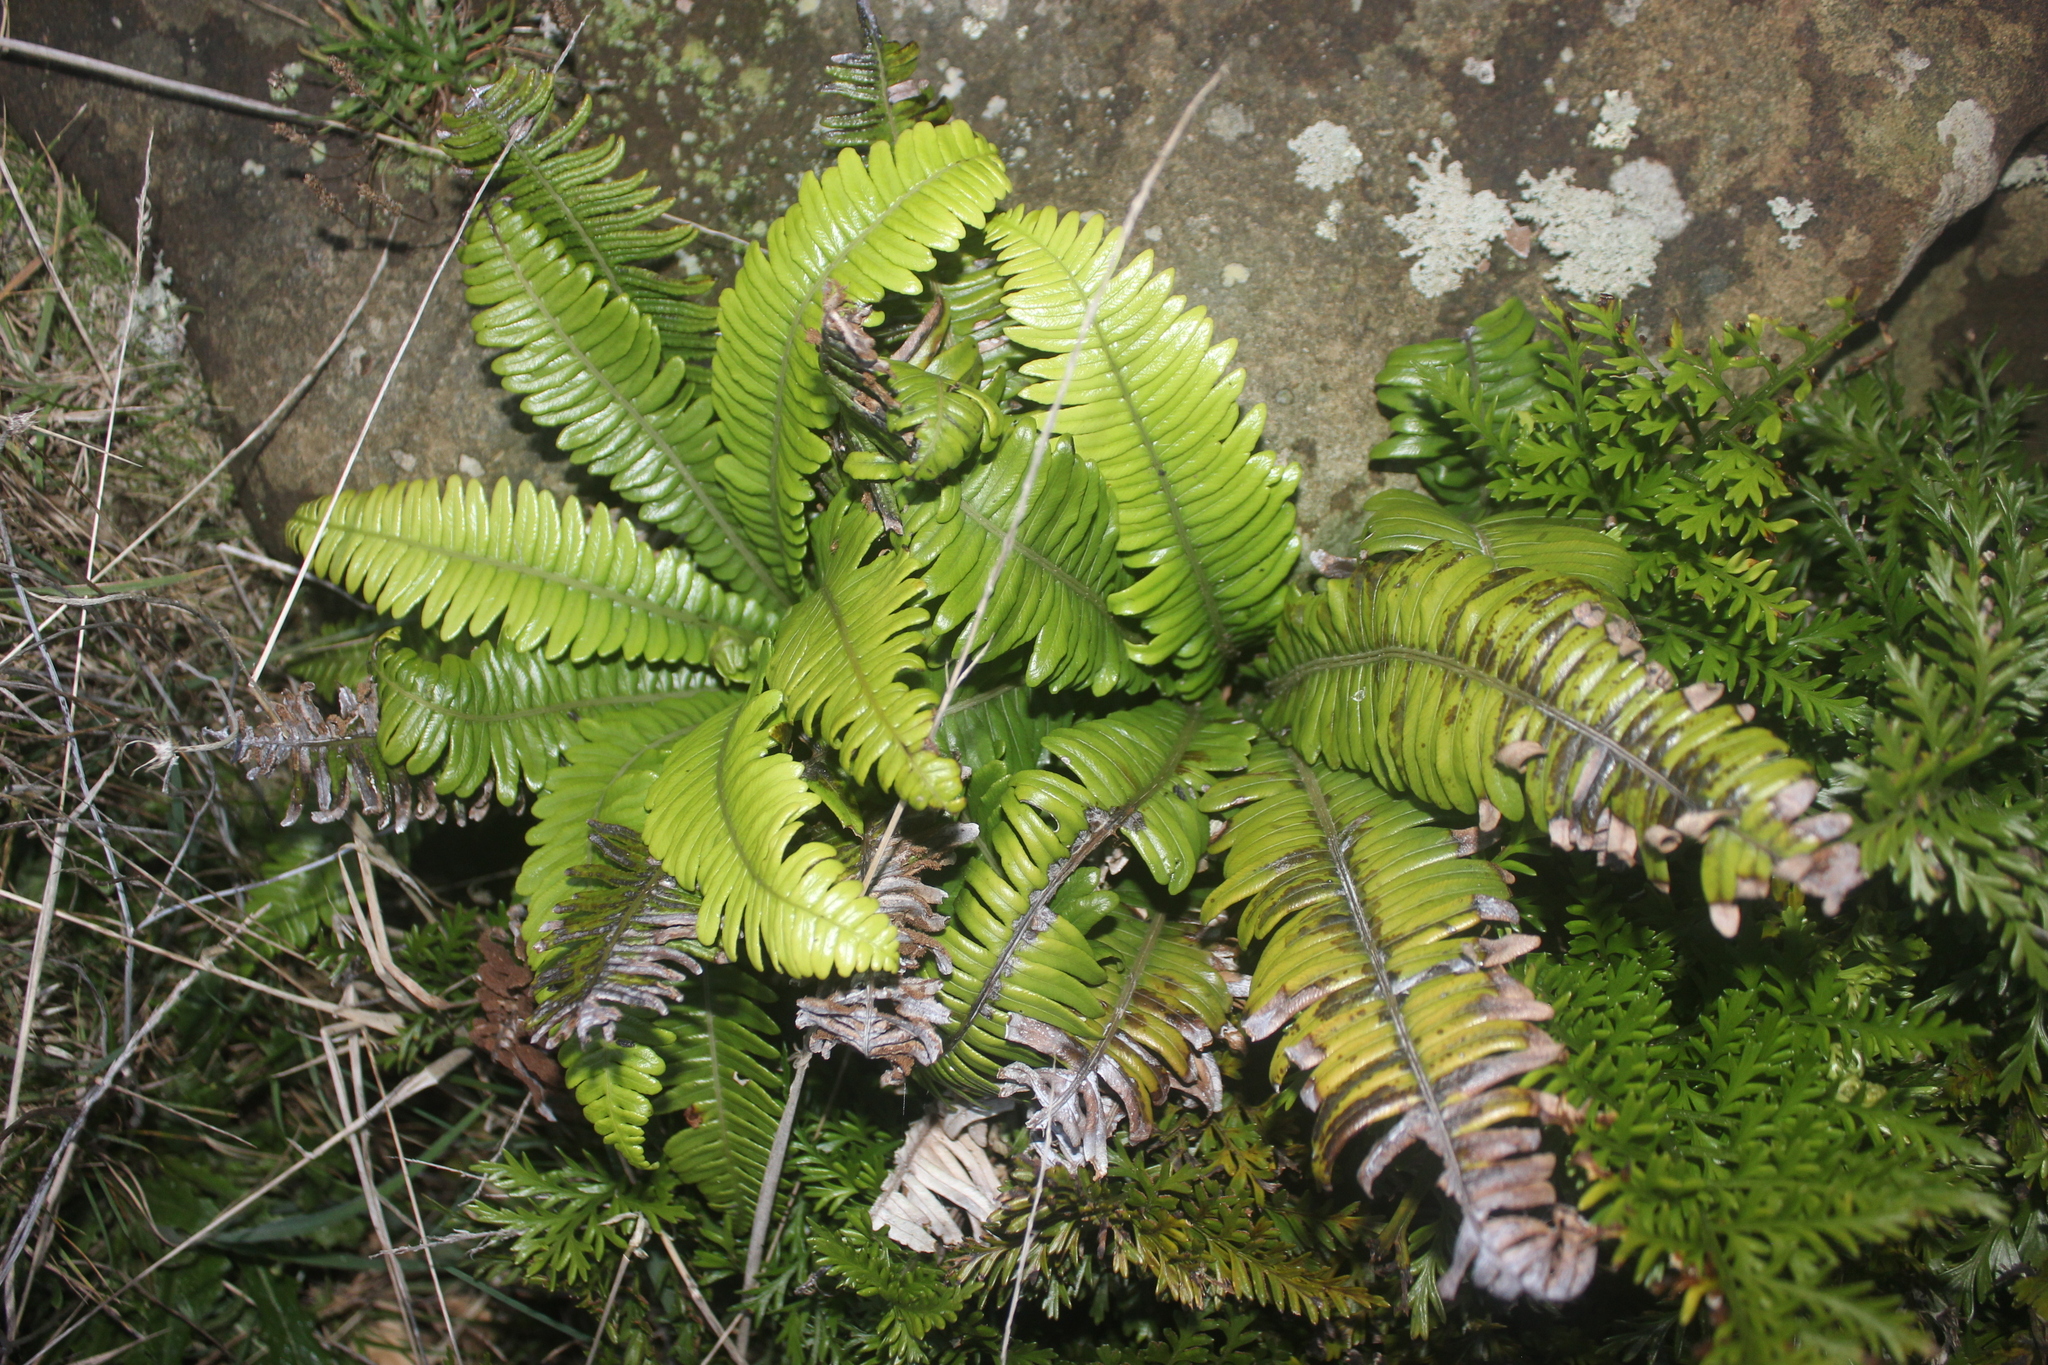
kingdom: Plantae
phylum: Tracheophyta
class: Polypodiopsida
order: Polypodiales
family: Blechnaceae
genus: Austroblechnum
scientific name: Austroblechnum durum
